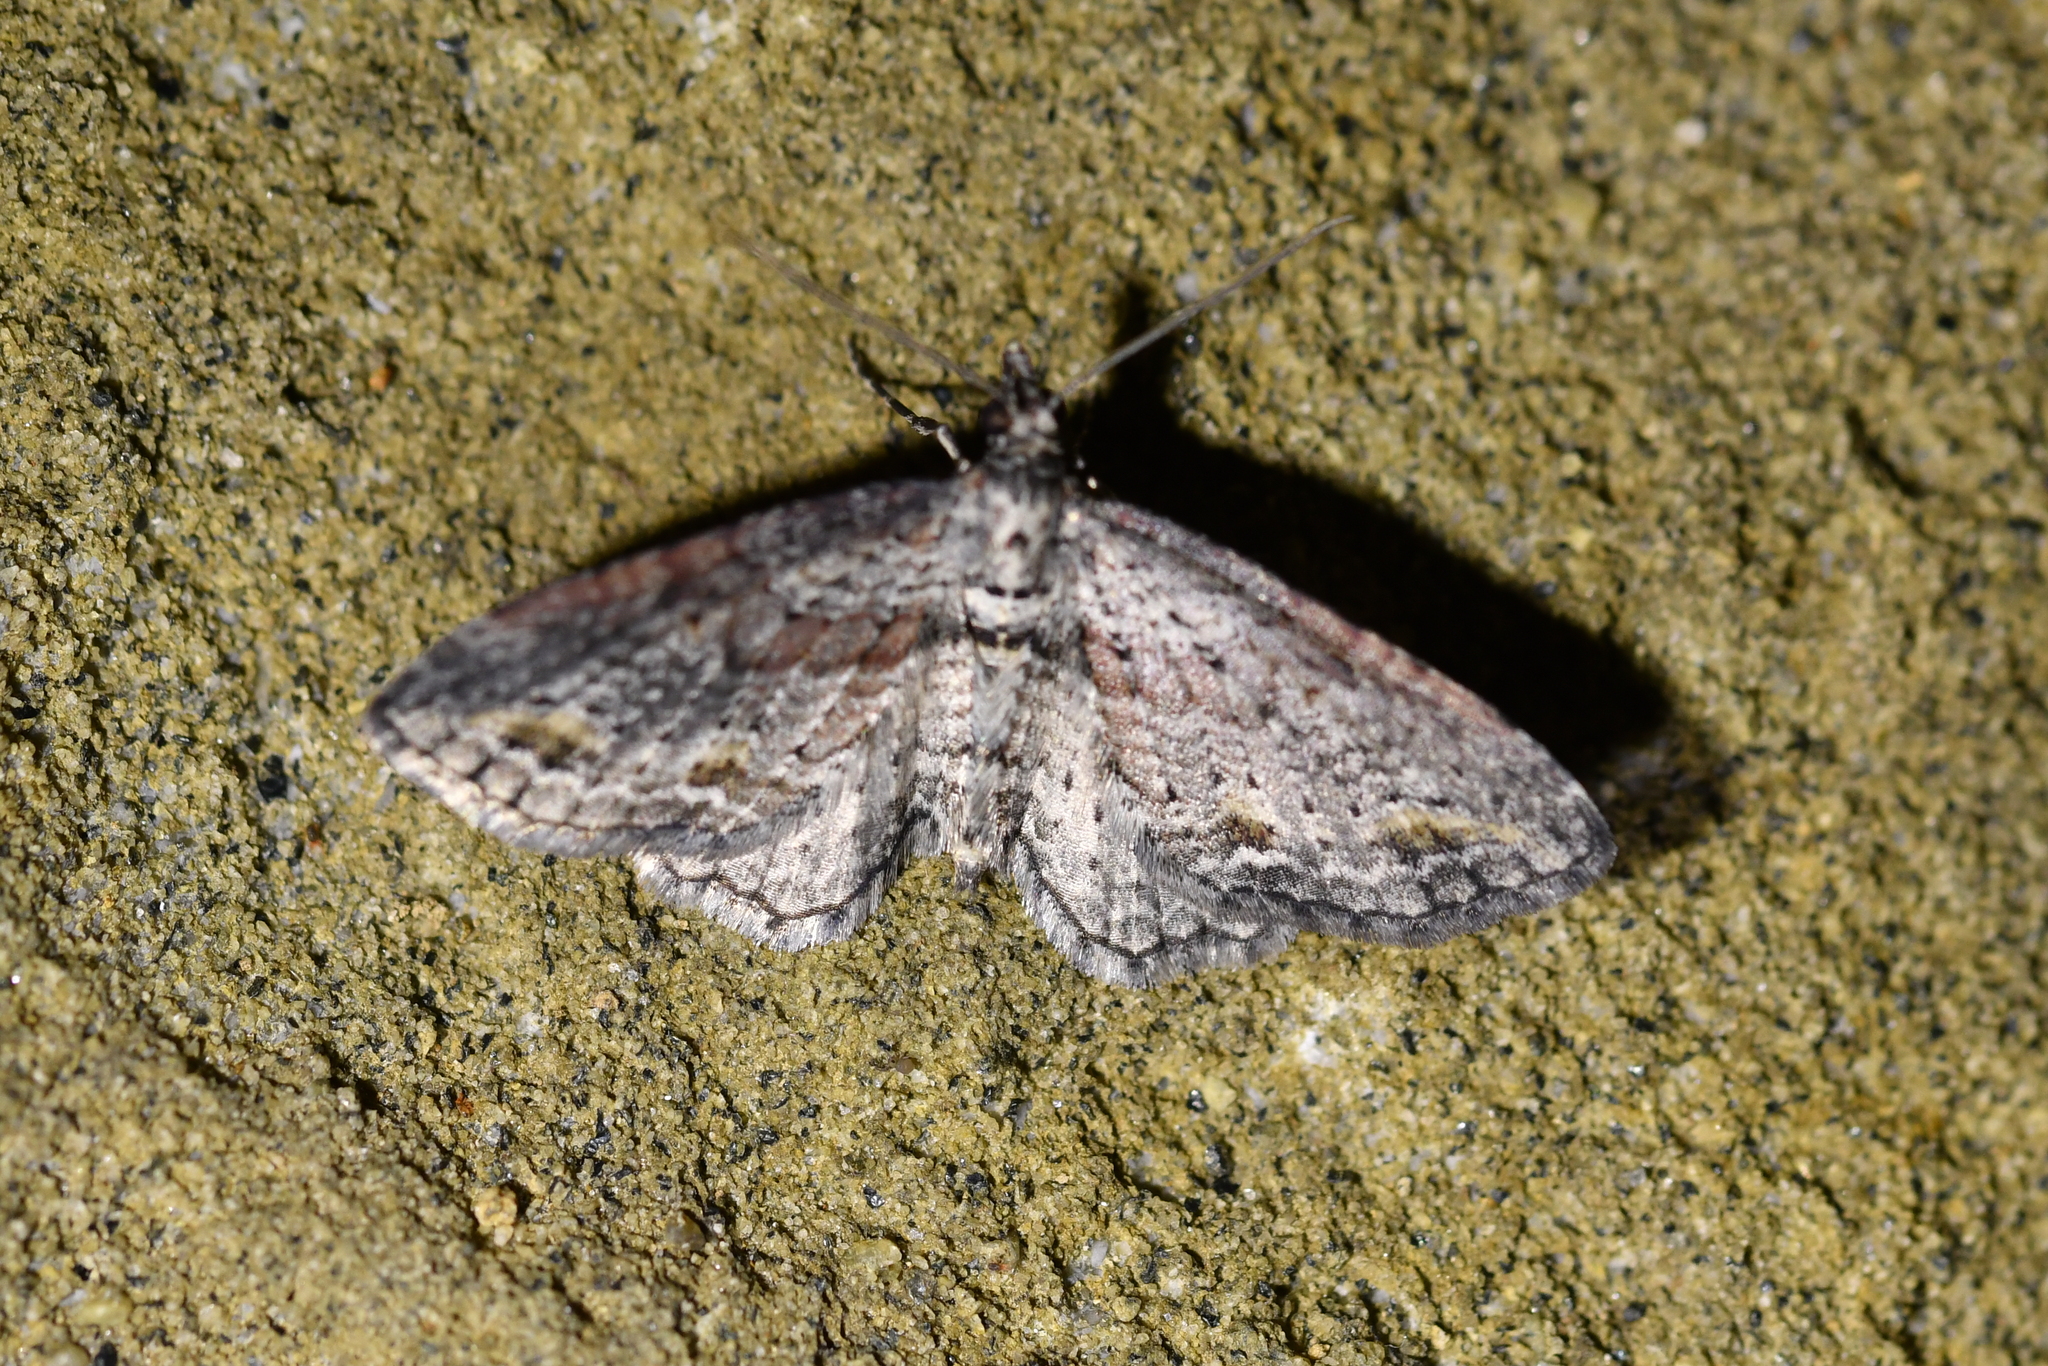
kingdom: Animalia
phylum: Arthropoda
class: Insecta
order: Lepidoptera
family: Geometridae
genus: Pasiphila
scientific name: Pasiphila humilis
